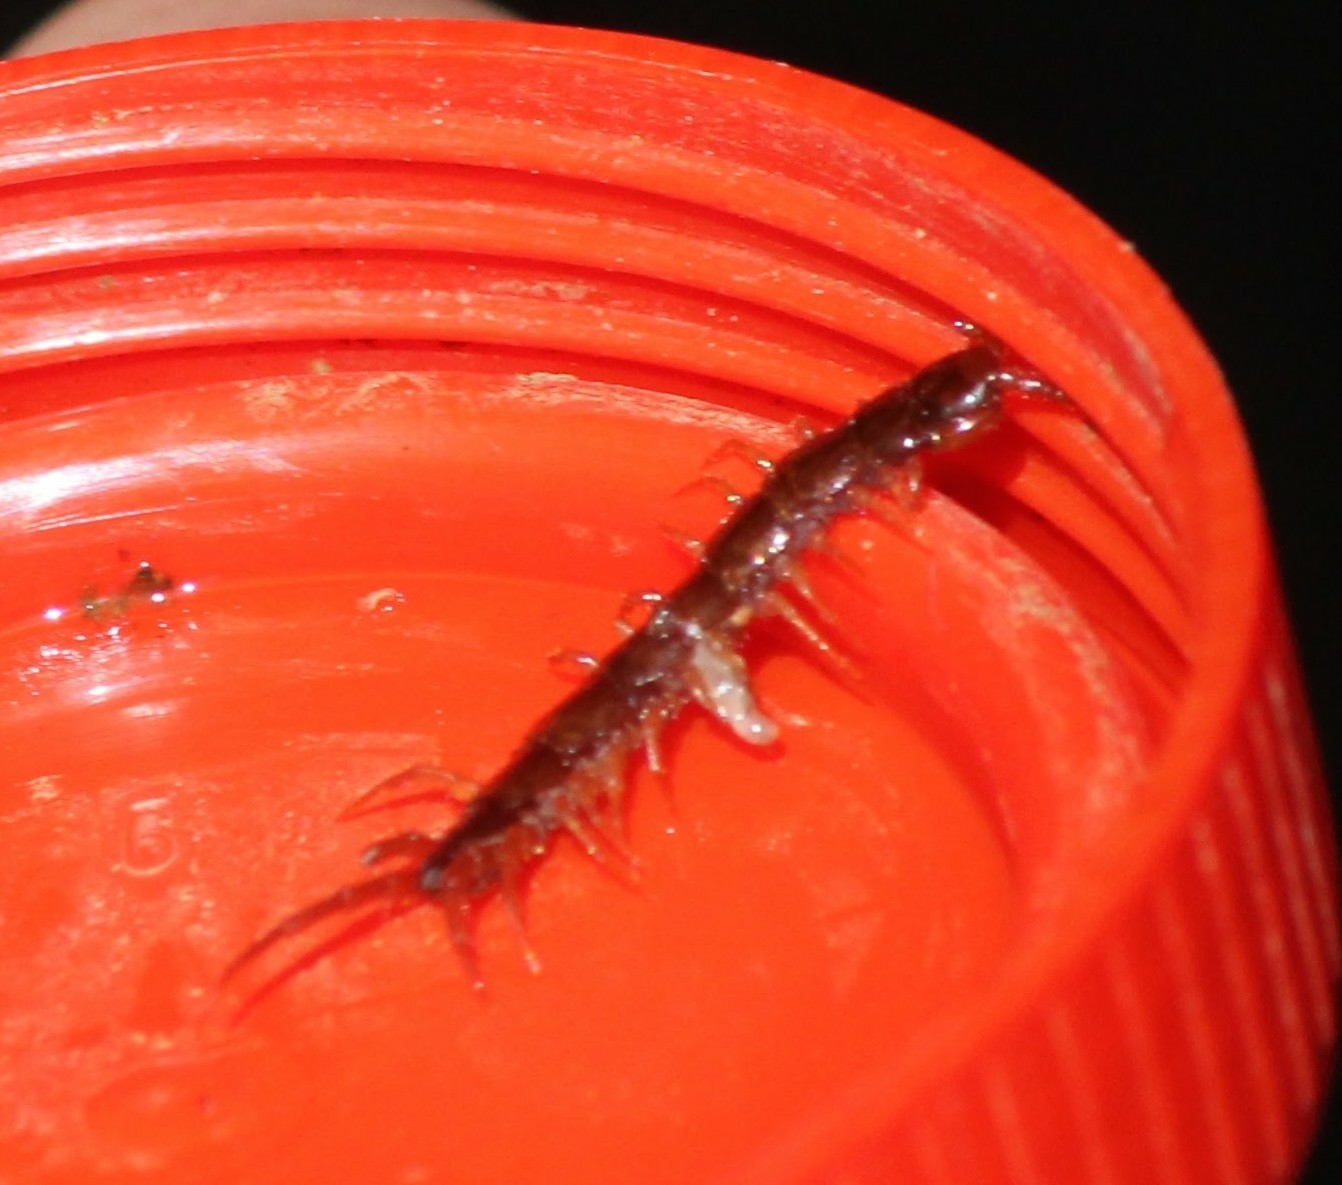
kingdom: Animalia
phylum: Arthropoda
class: Chilopoda
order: Lithobiomorpha
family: Lithobiidae
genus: Lithobius
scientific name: Lithobius forficatus
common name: Centipede
